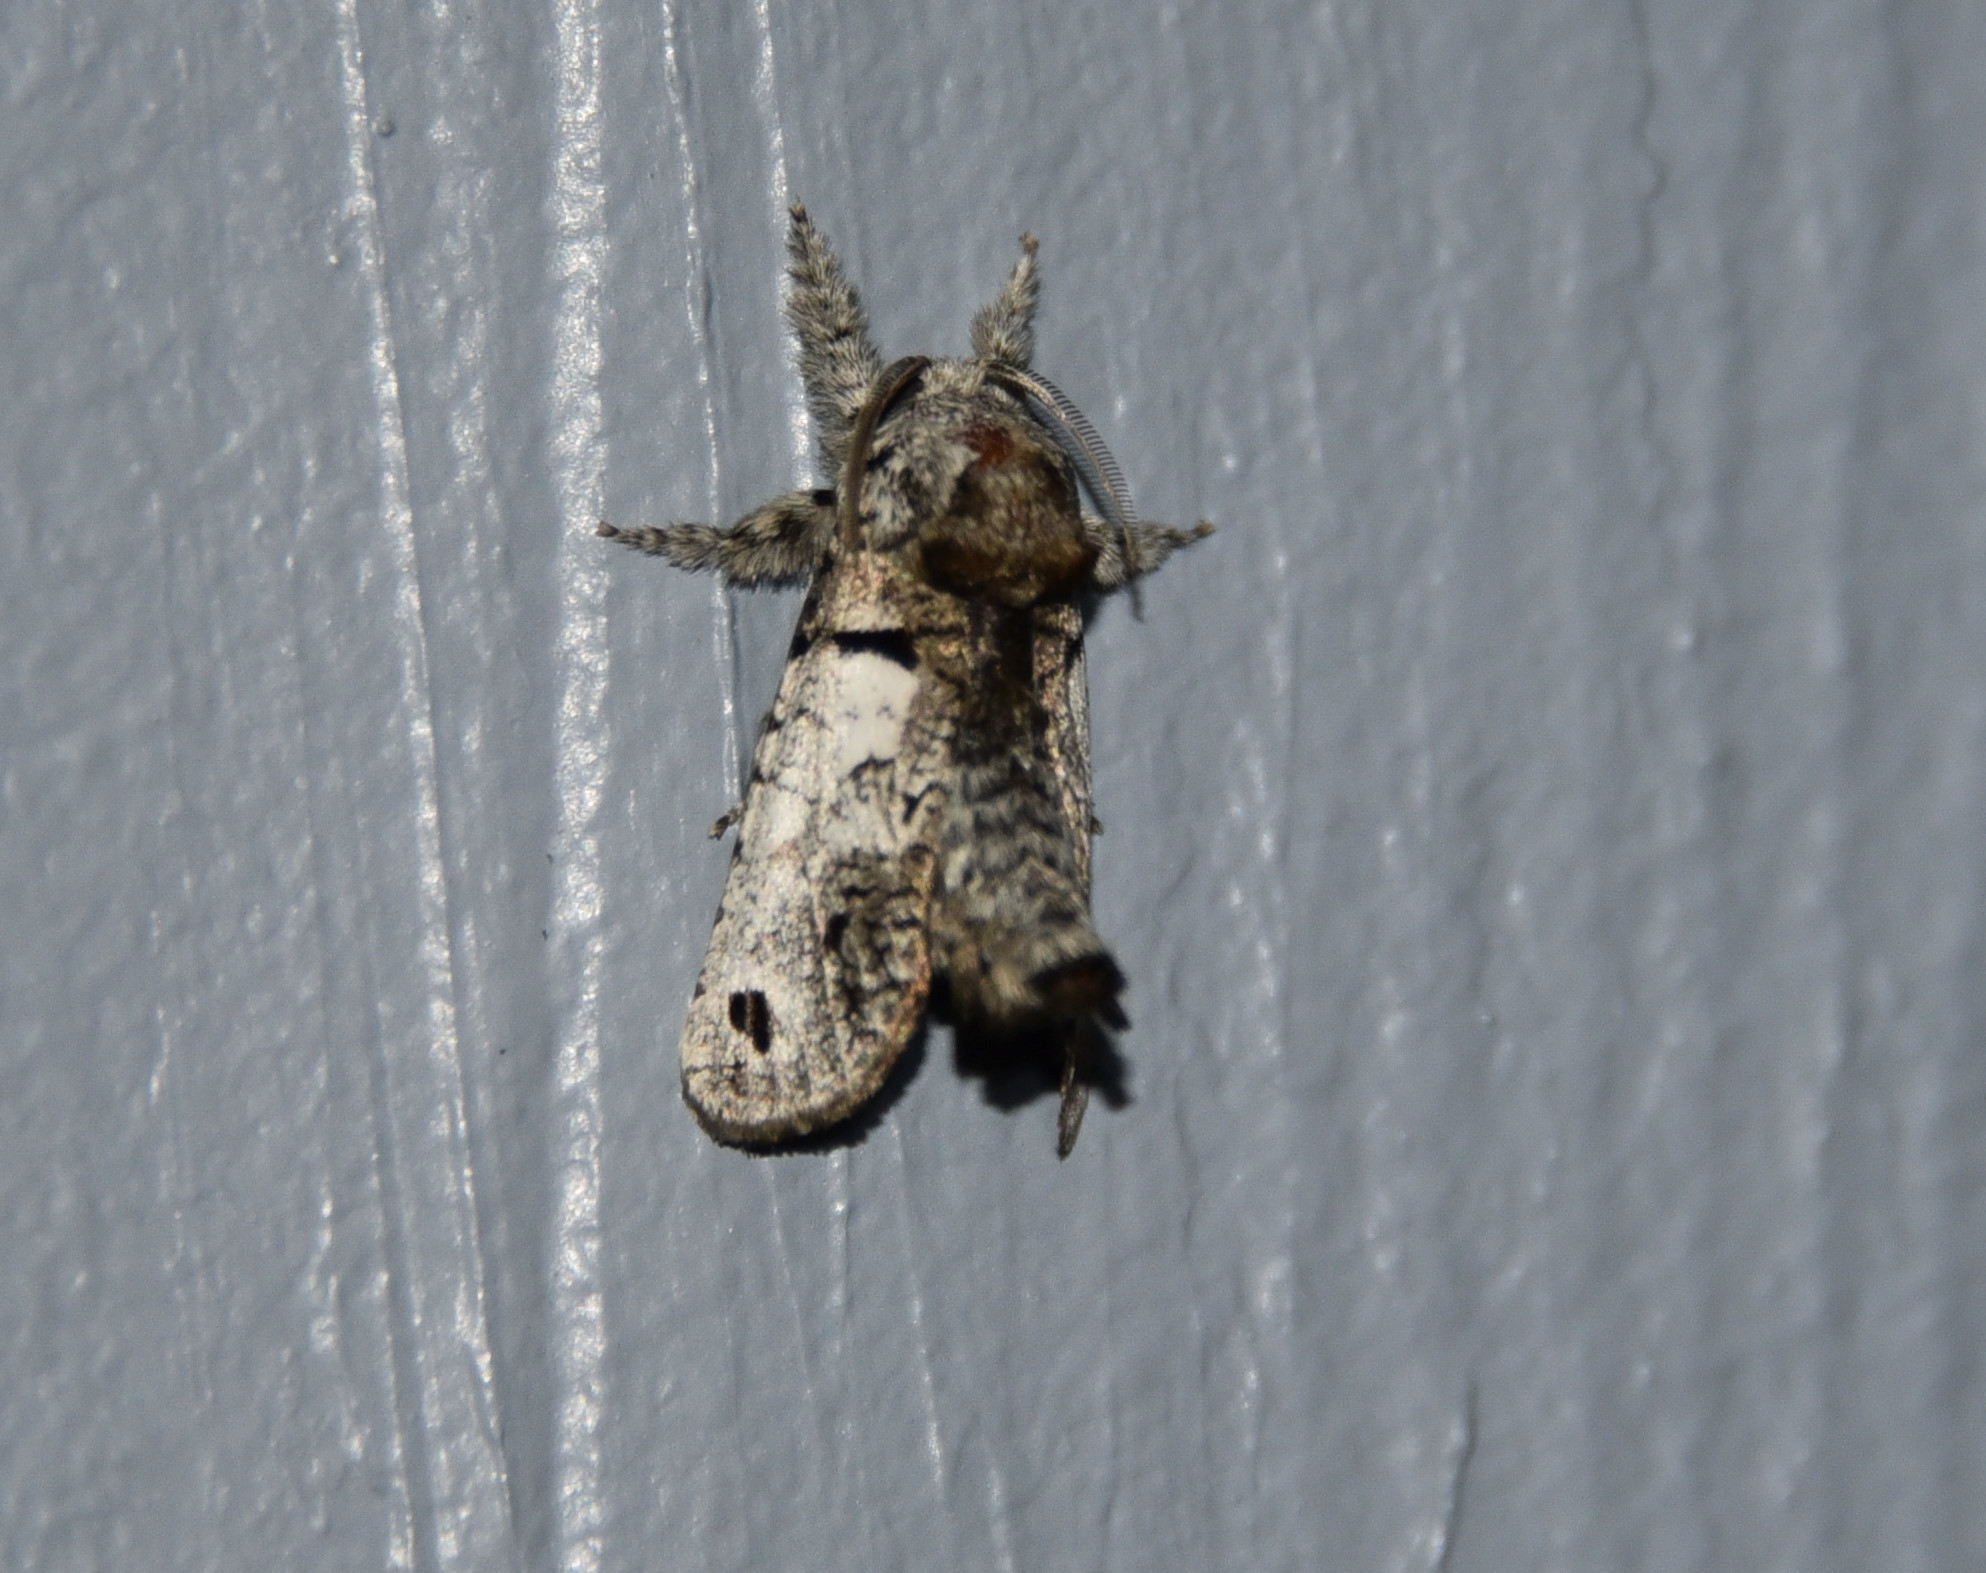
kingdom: Animalia
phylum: Arthropoda
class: Insecta
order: Lepidoptera
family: Cossidae
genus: Inguromorpha
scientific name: Inguromorpha
